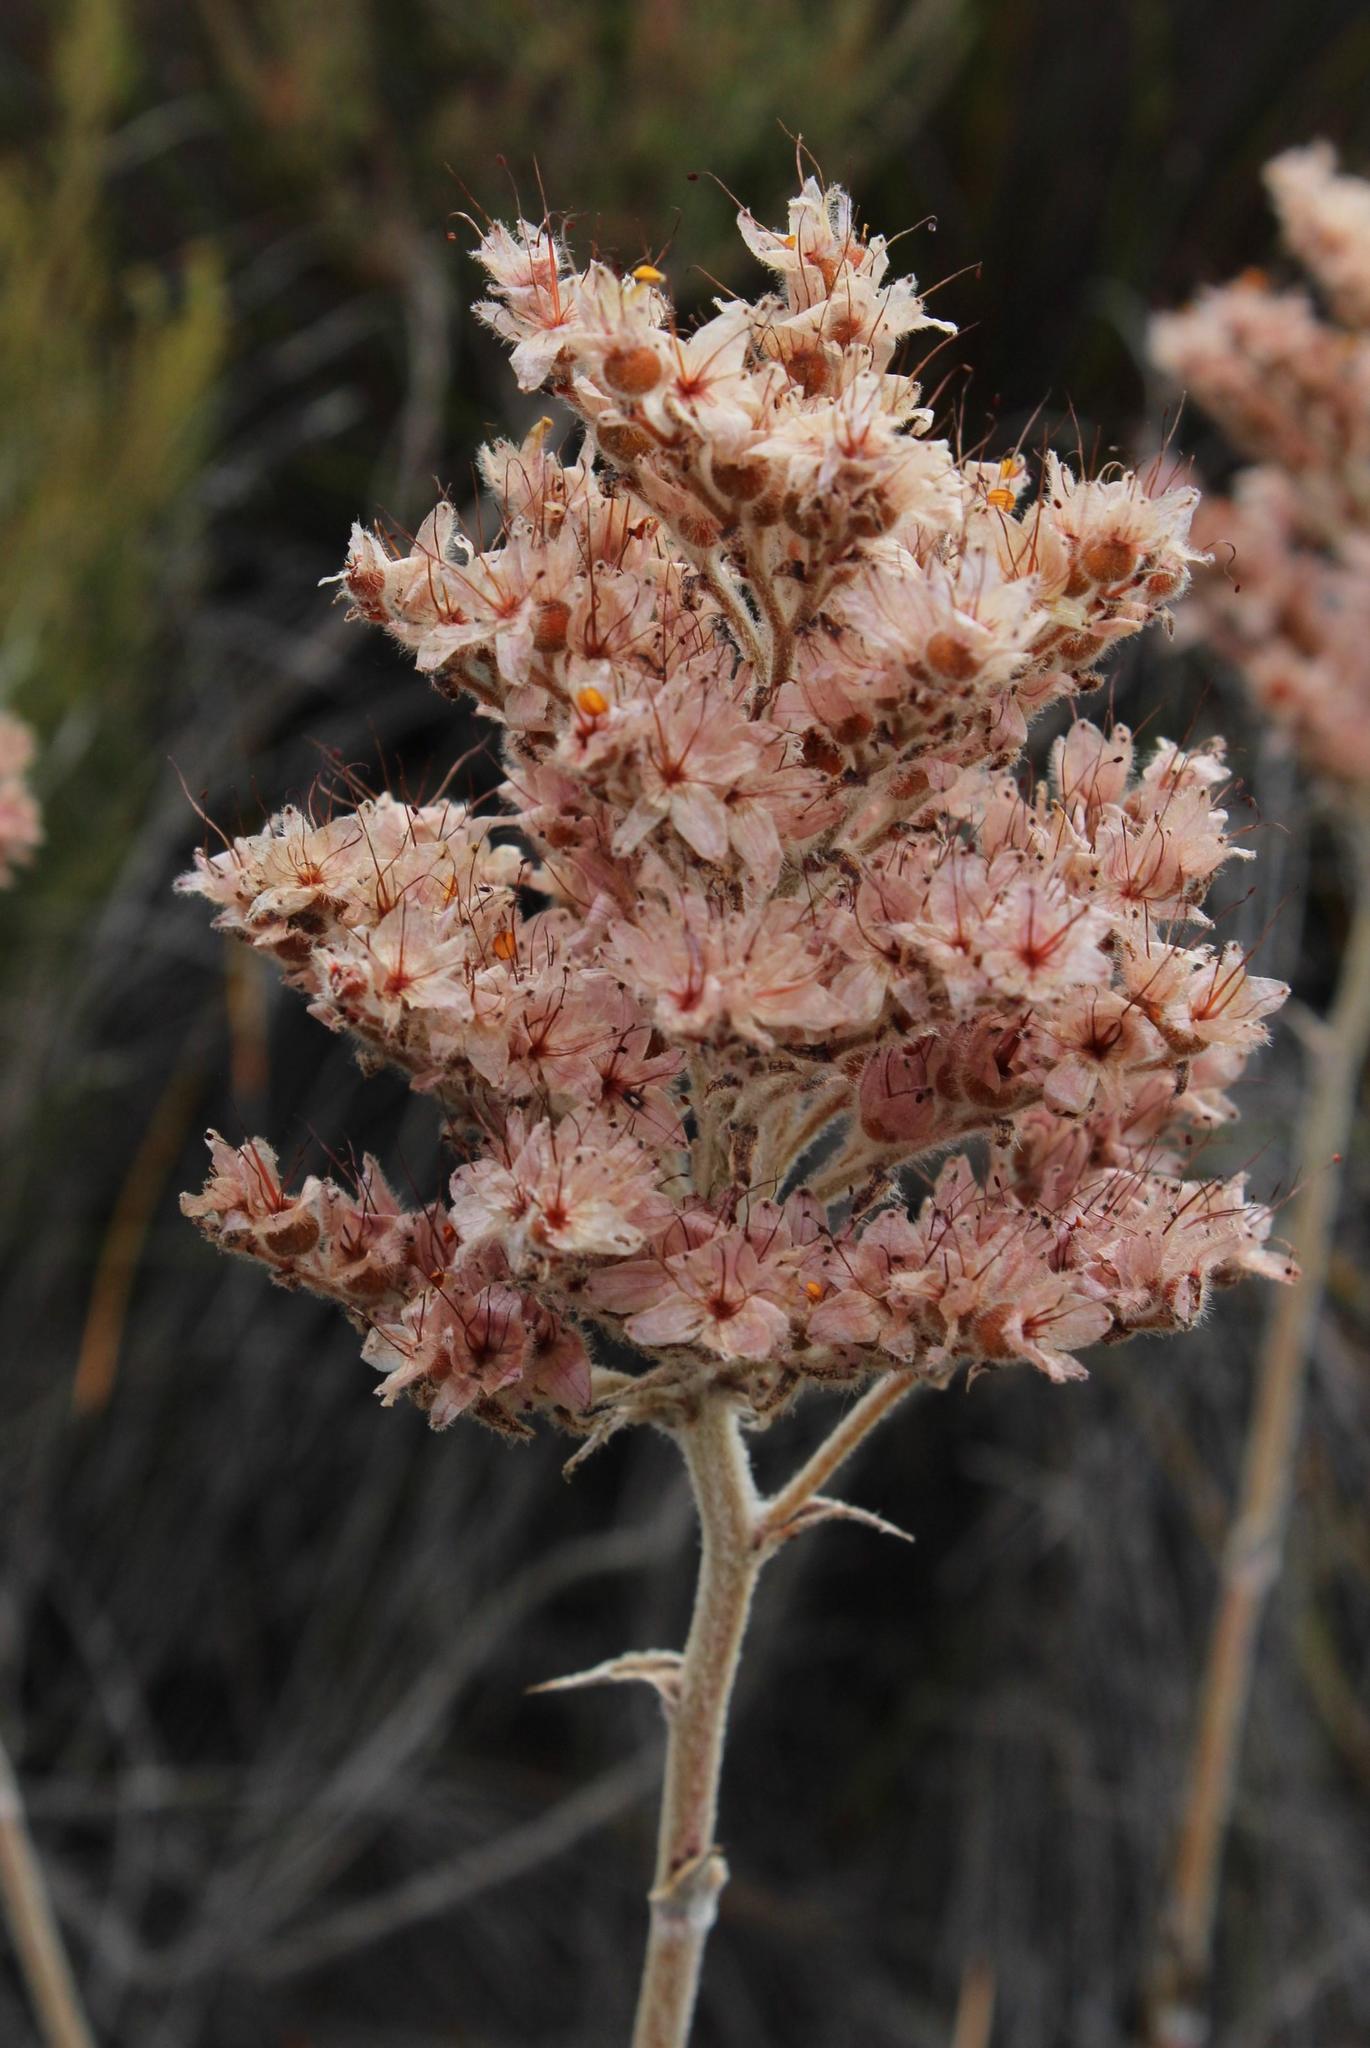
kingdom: Plantae
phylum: Tracheophyta
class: Liliopsida
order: Commelinales
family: Haemodoraceae
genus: Dilatris
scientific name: Dilatris ixioides
